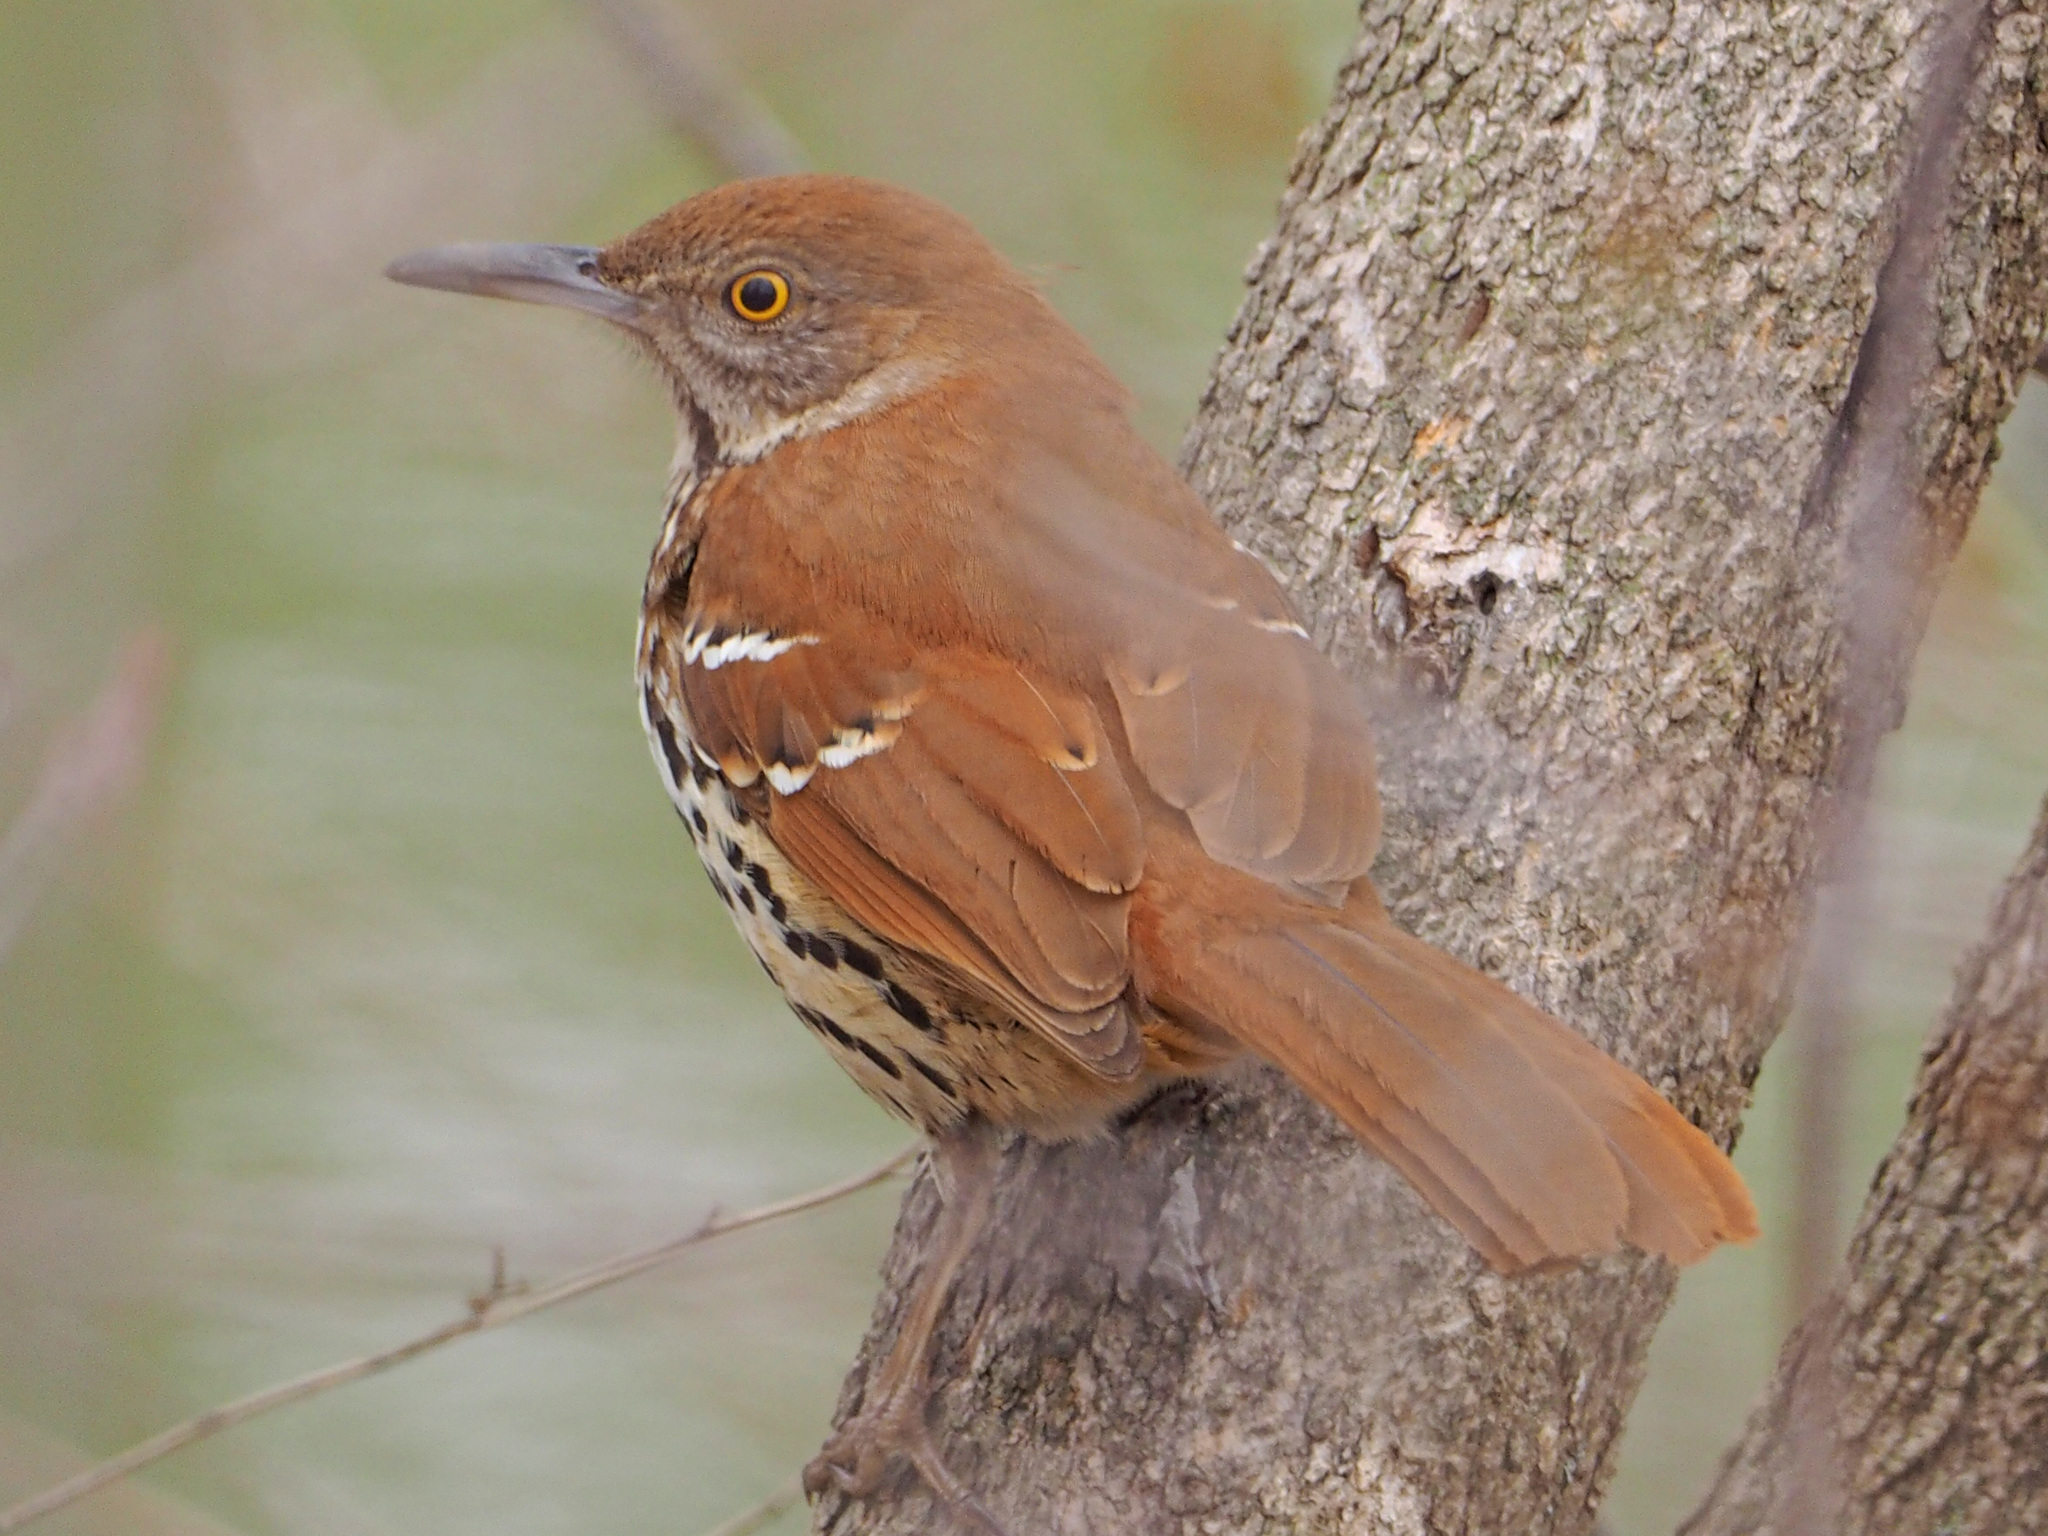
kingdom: Animalia
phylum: Chordata
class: Aves
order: Passeriformes
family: Mimidae
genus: Toxostoma
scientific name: Toxostoma rufum
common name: Brown thrasher
